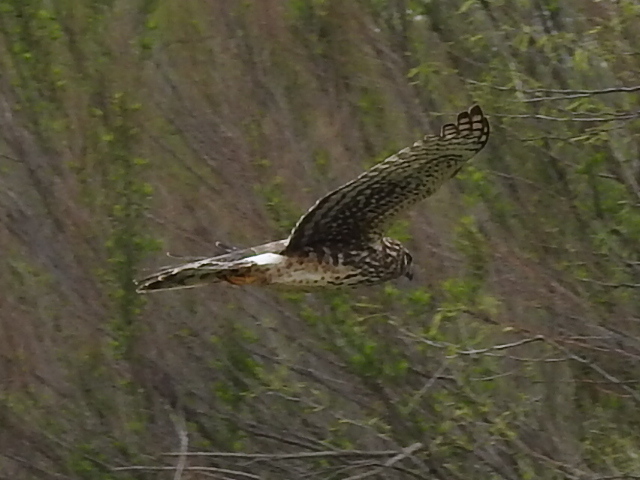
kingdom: Animalia
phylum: Chordata
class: Aves
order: Accipitriformes
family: Accipitridae
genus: Circus
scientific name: Circus cyaneus
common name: Hen harrier
